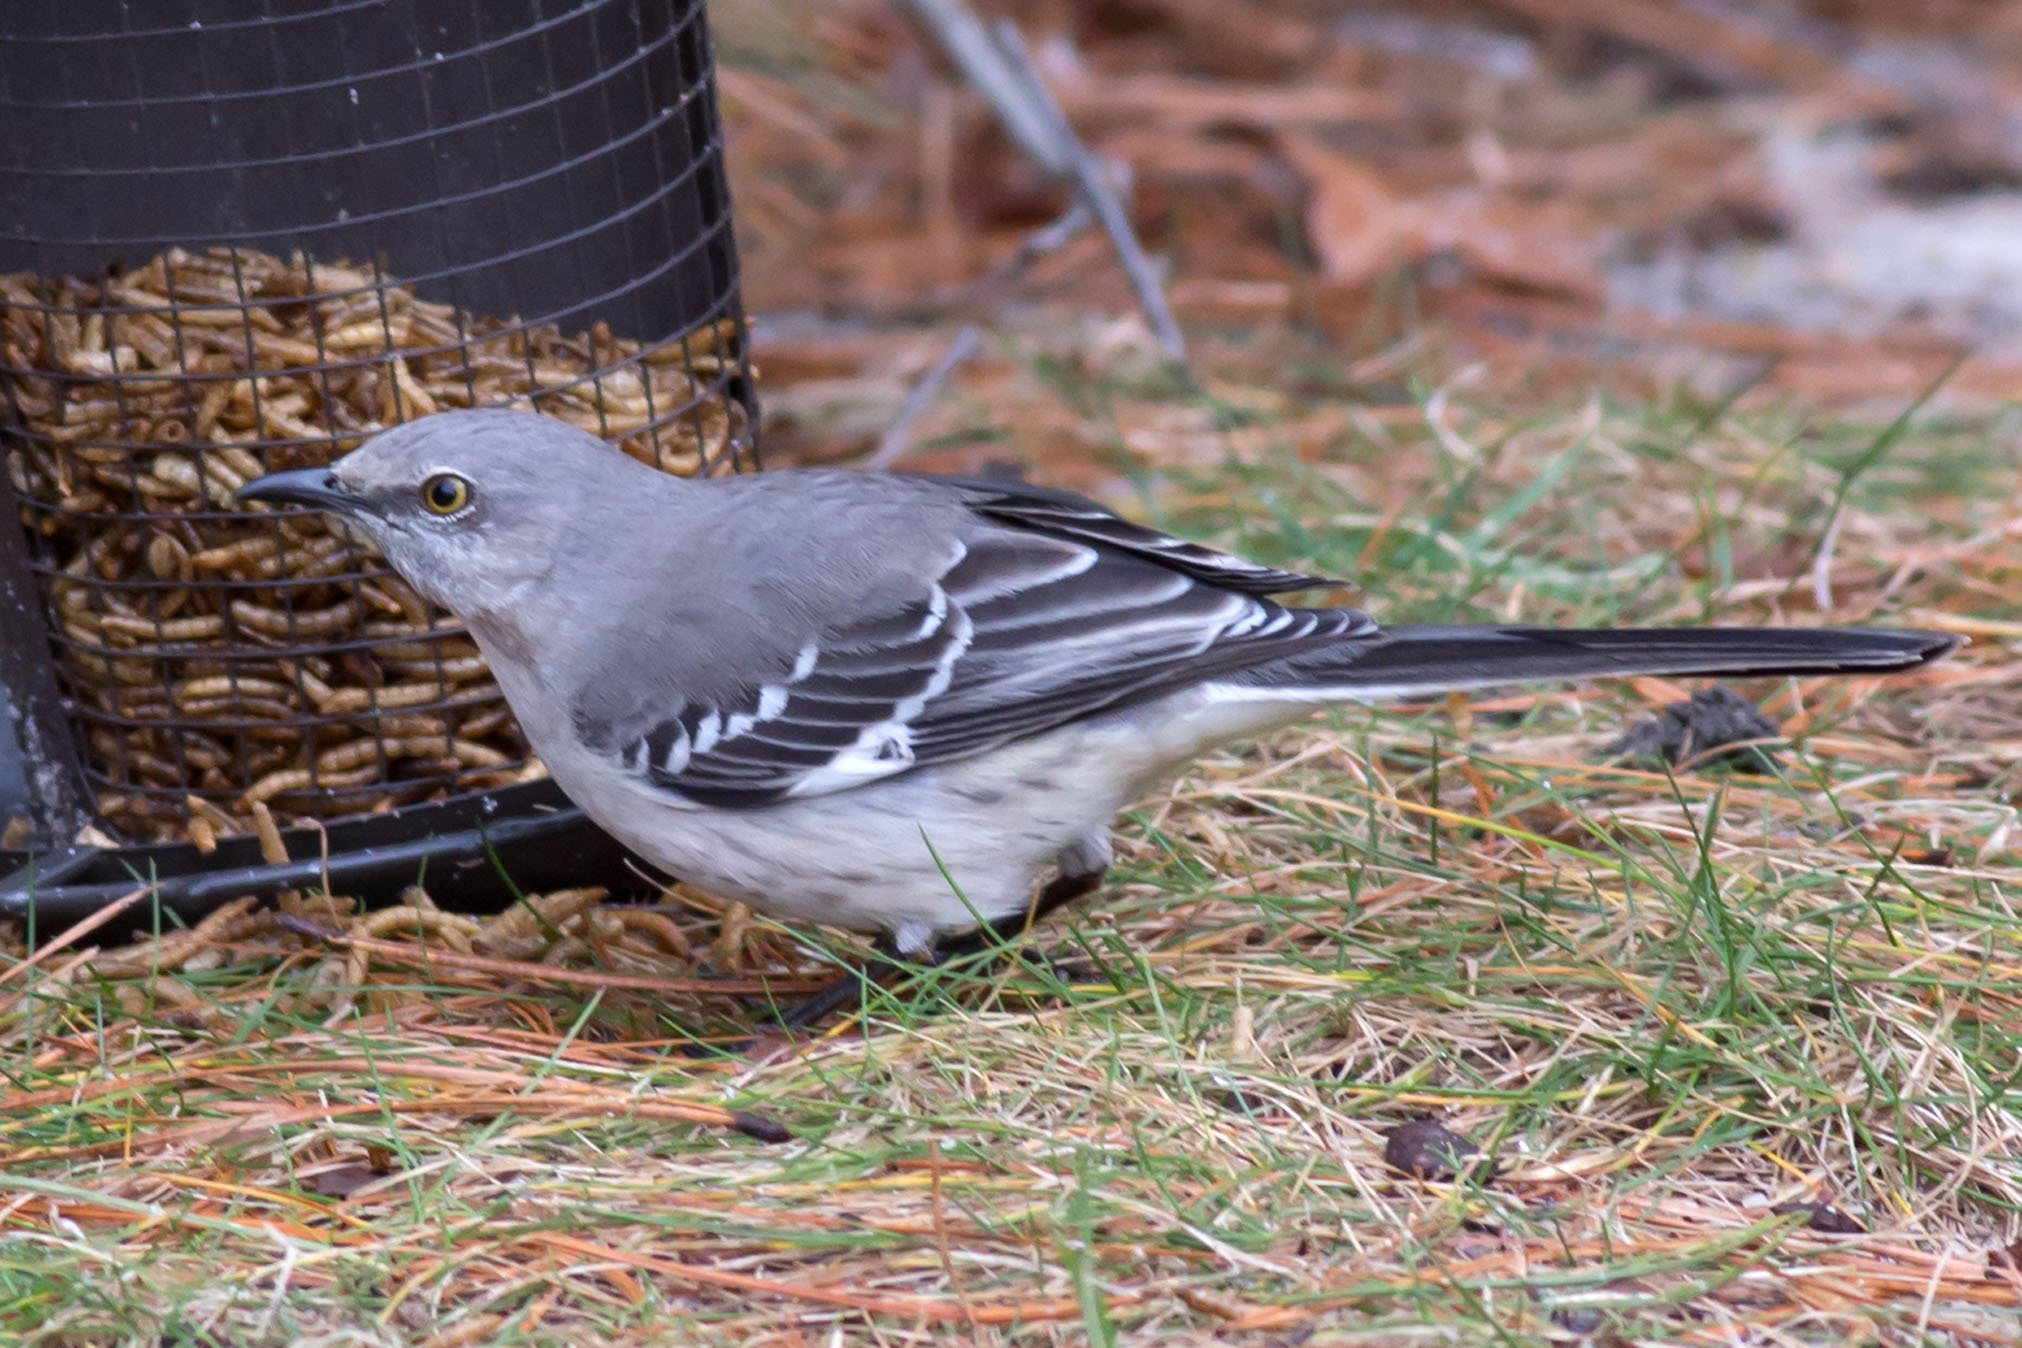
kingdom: Animalia
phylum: Chordata
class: Aves
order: Passeriformes
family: Mimidae
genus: Mimus
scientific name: Mimus polyglottos
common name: Northern mockingbird
